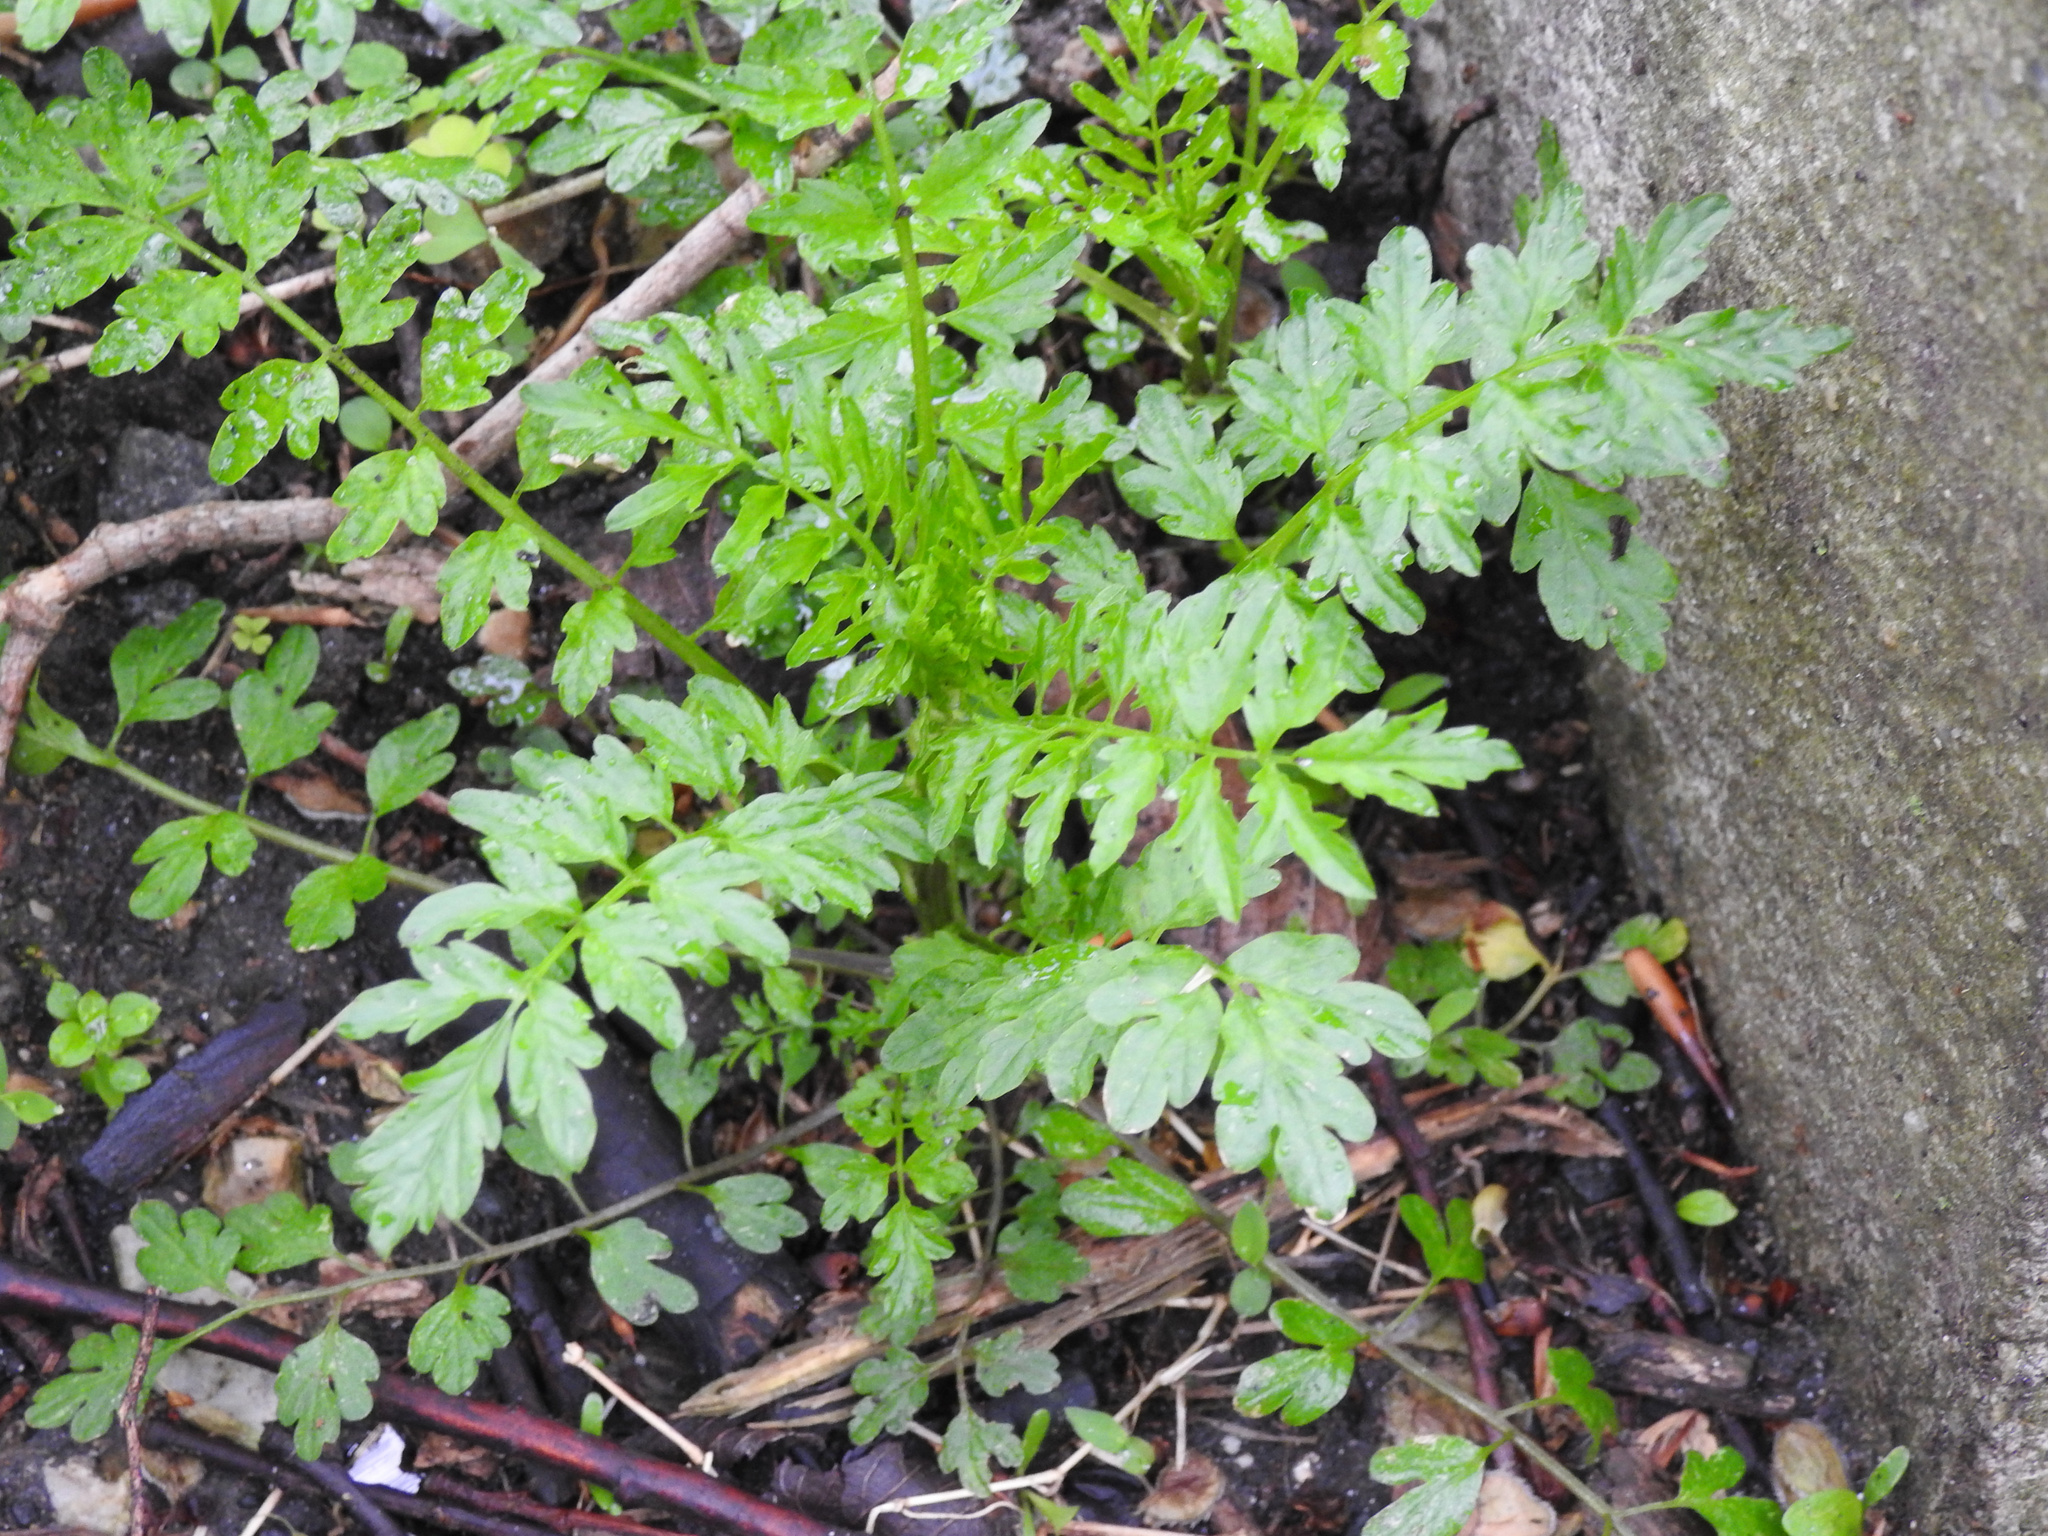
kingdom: Plantae
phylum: Tracheophyta
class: Magnoliopsida
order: Brassicales
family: Brassicaceae
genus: Cardamine
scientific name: Cardamine impatiens
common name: Narrow-leaved bitter-cress
